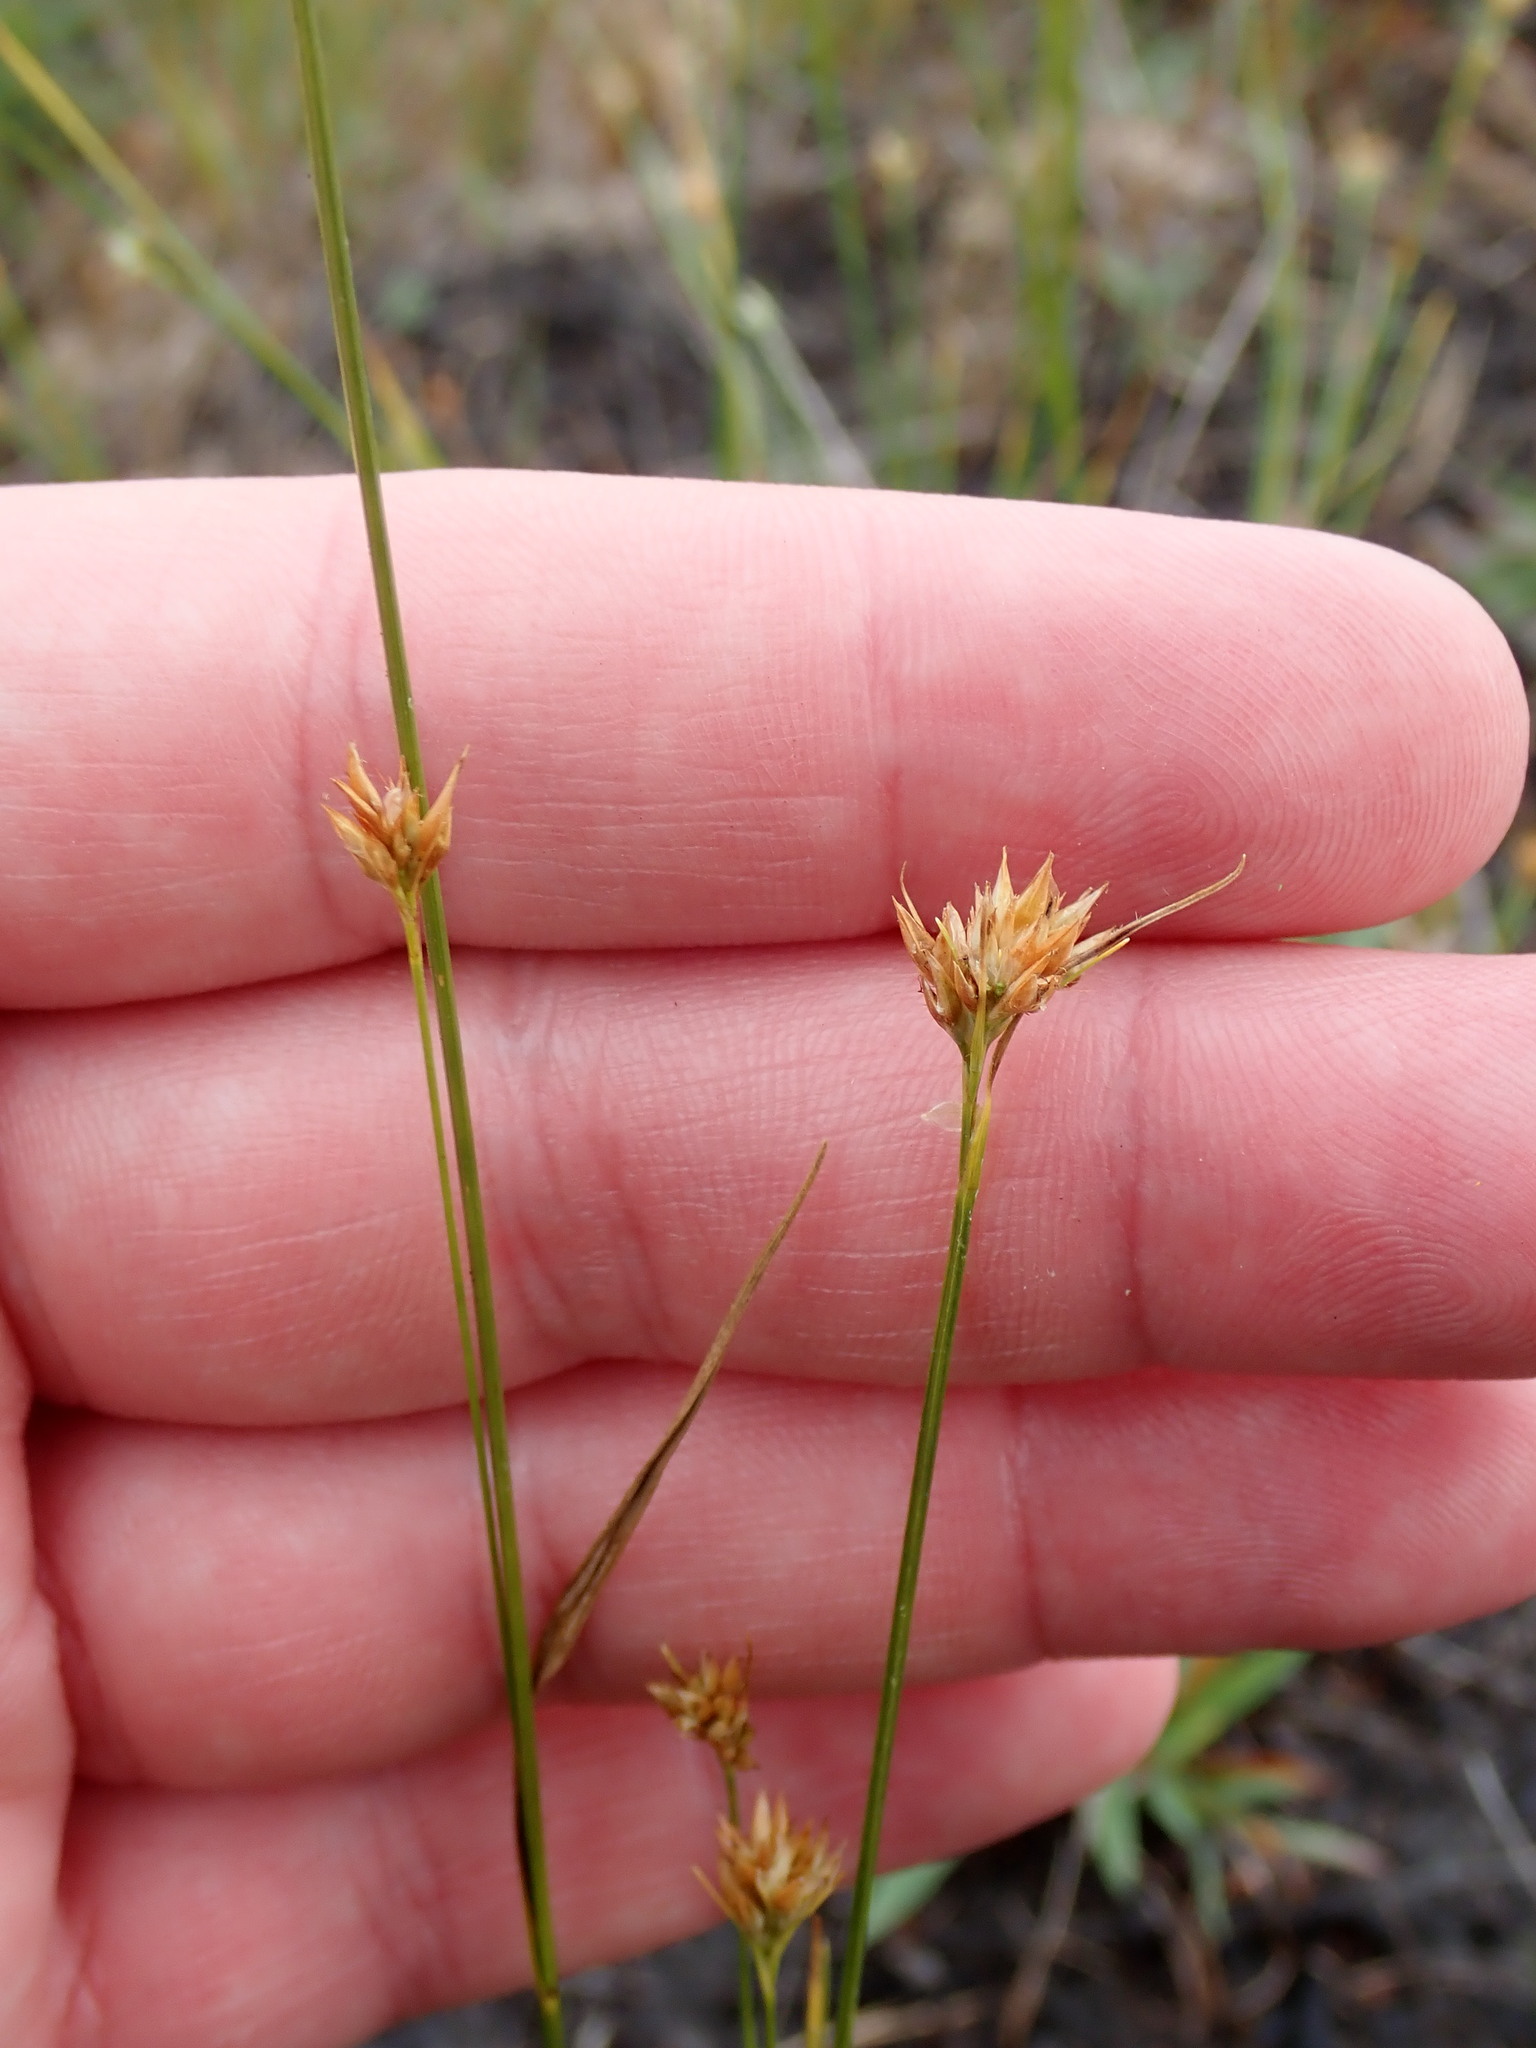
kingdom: Plantae
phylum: Tracheophyta
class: Liliopsida
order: Poales
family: Cyperaceae
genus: Rhynchospora
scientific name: Rhynchospora alba
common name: White beak-sedge
